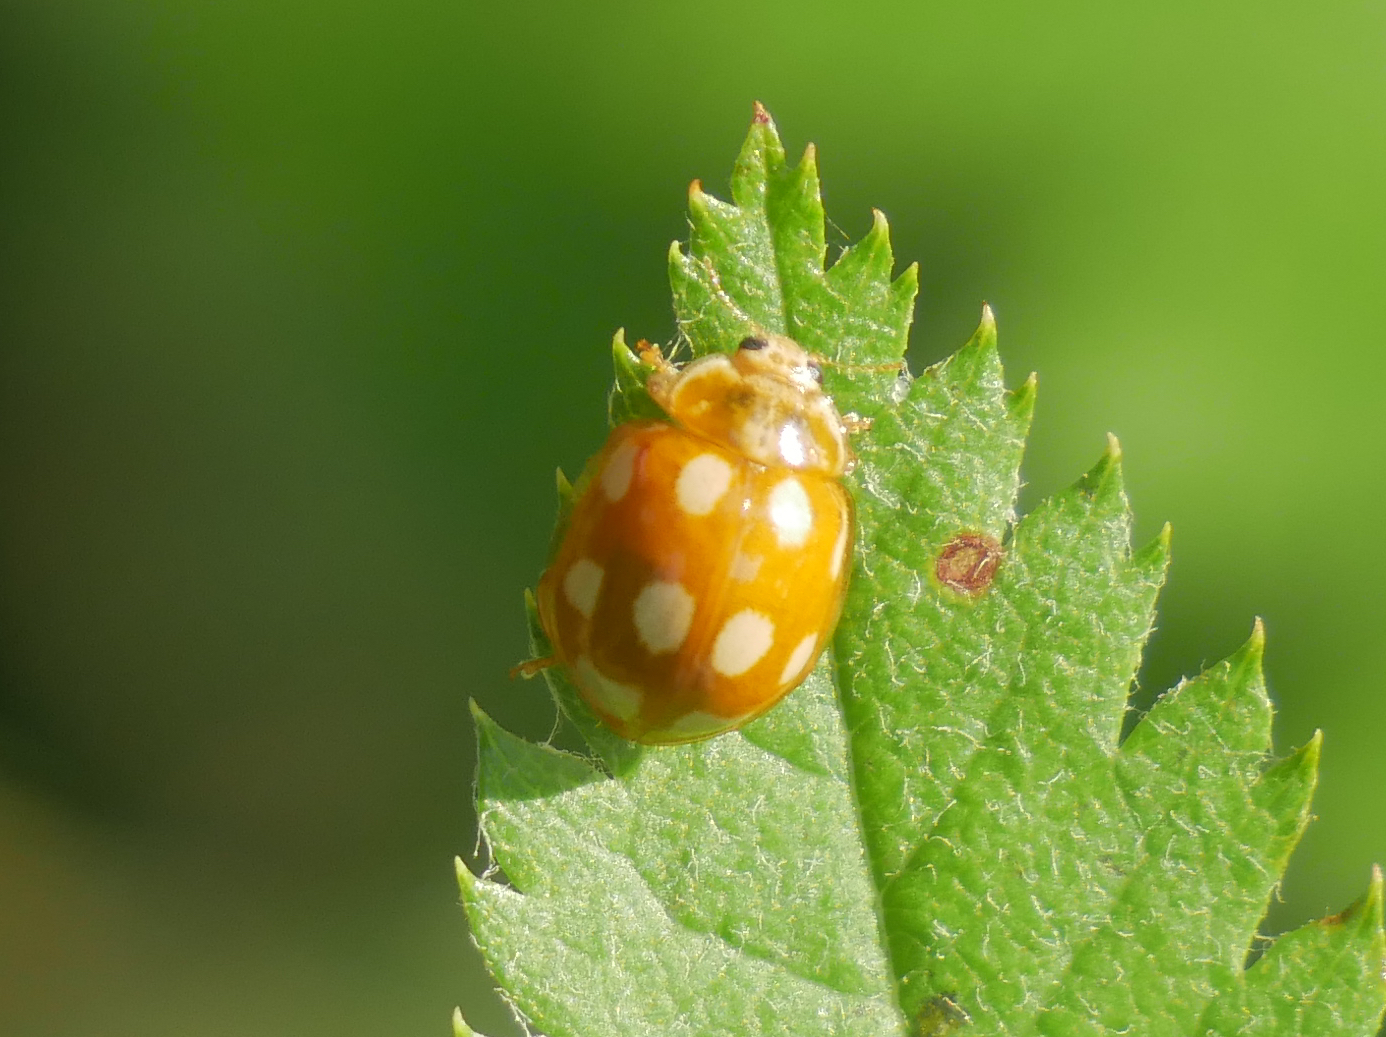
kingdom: Animalia
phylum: Arthropoda
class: Insecta
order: Coleoptera
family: Coccinellidae
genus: Calvia
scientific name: Calvia decemguttata
